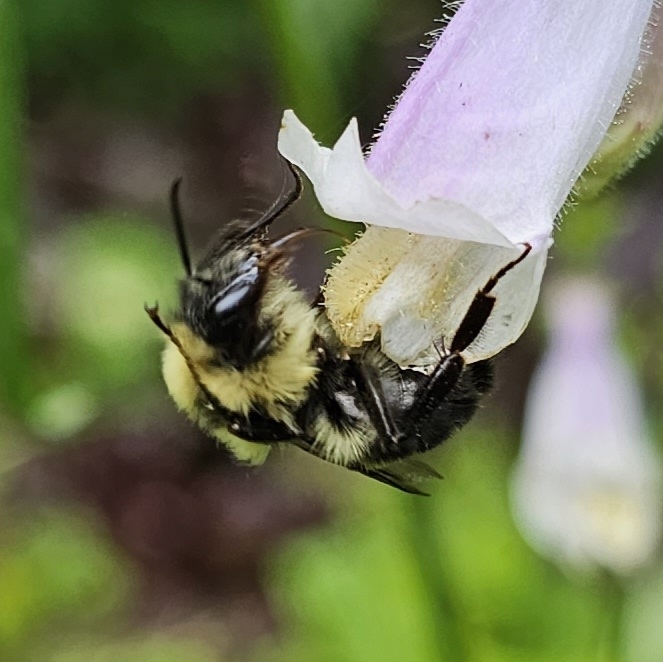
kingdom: Animalia
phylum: Arthropoda
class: Insecta
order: Hymenoptera
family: Apidae
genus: Bombus
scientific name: Bombus bimaculatus
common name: Two-spotted bumble bee
